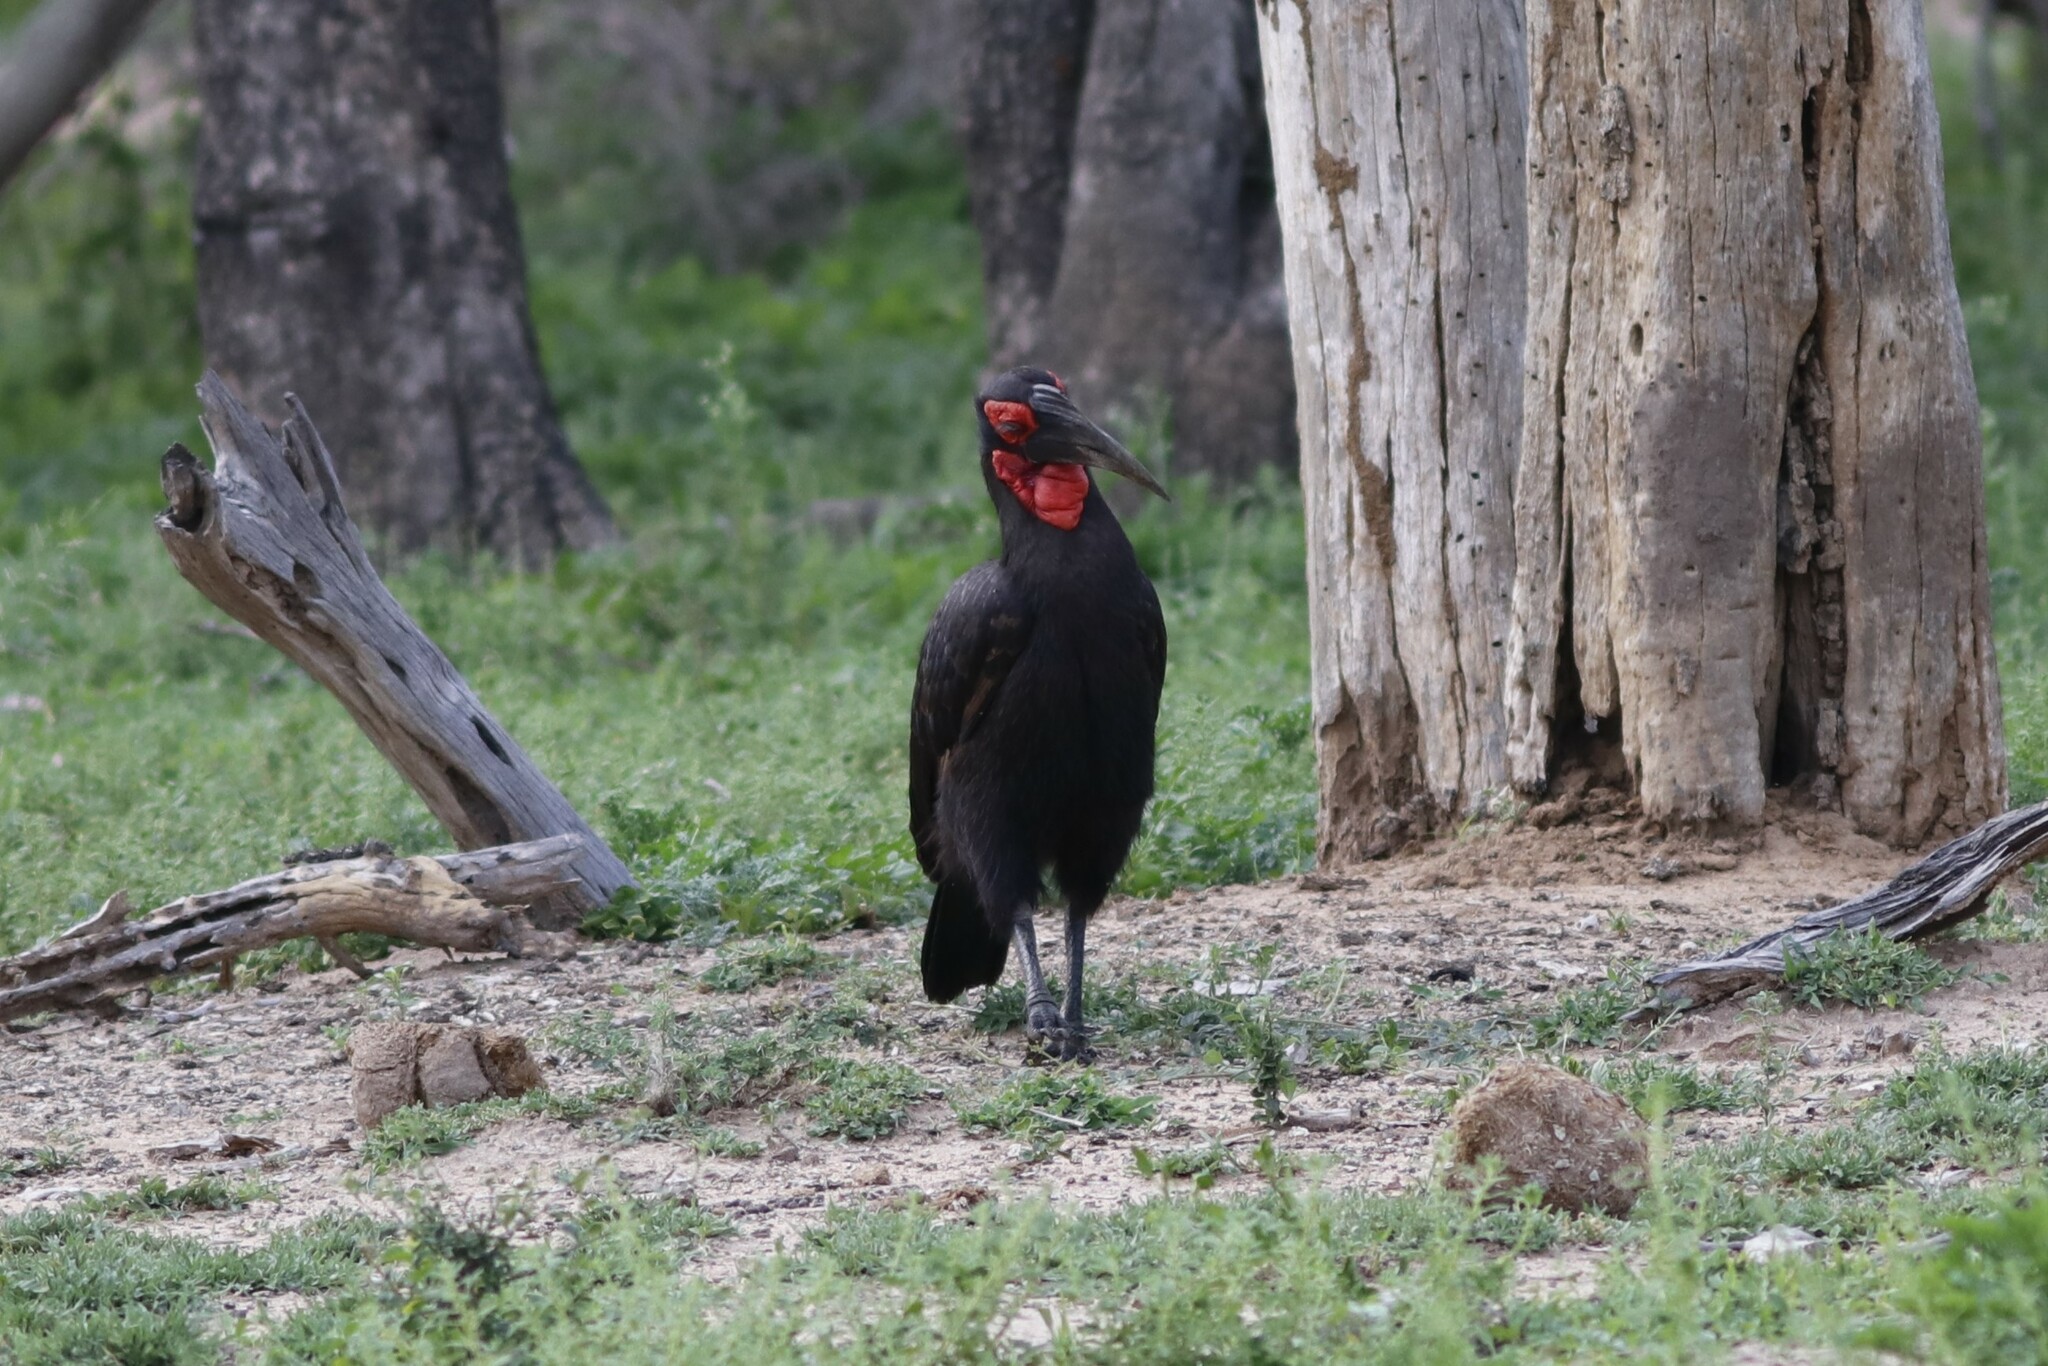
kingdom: Animalia
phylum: Chordata
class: Aves
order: Bucerotiformes
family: Bucorvidae
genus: Bucorvus
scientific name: Bucorvus leadbeateri
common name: Southern ground-hornbill
